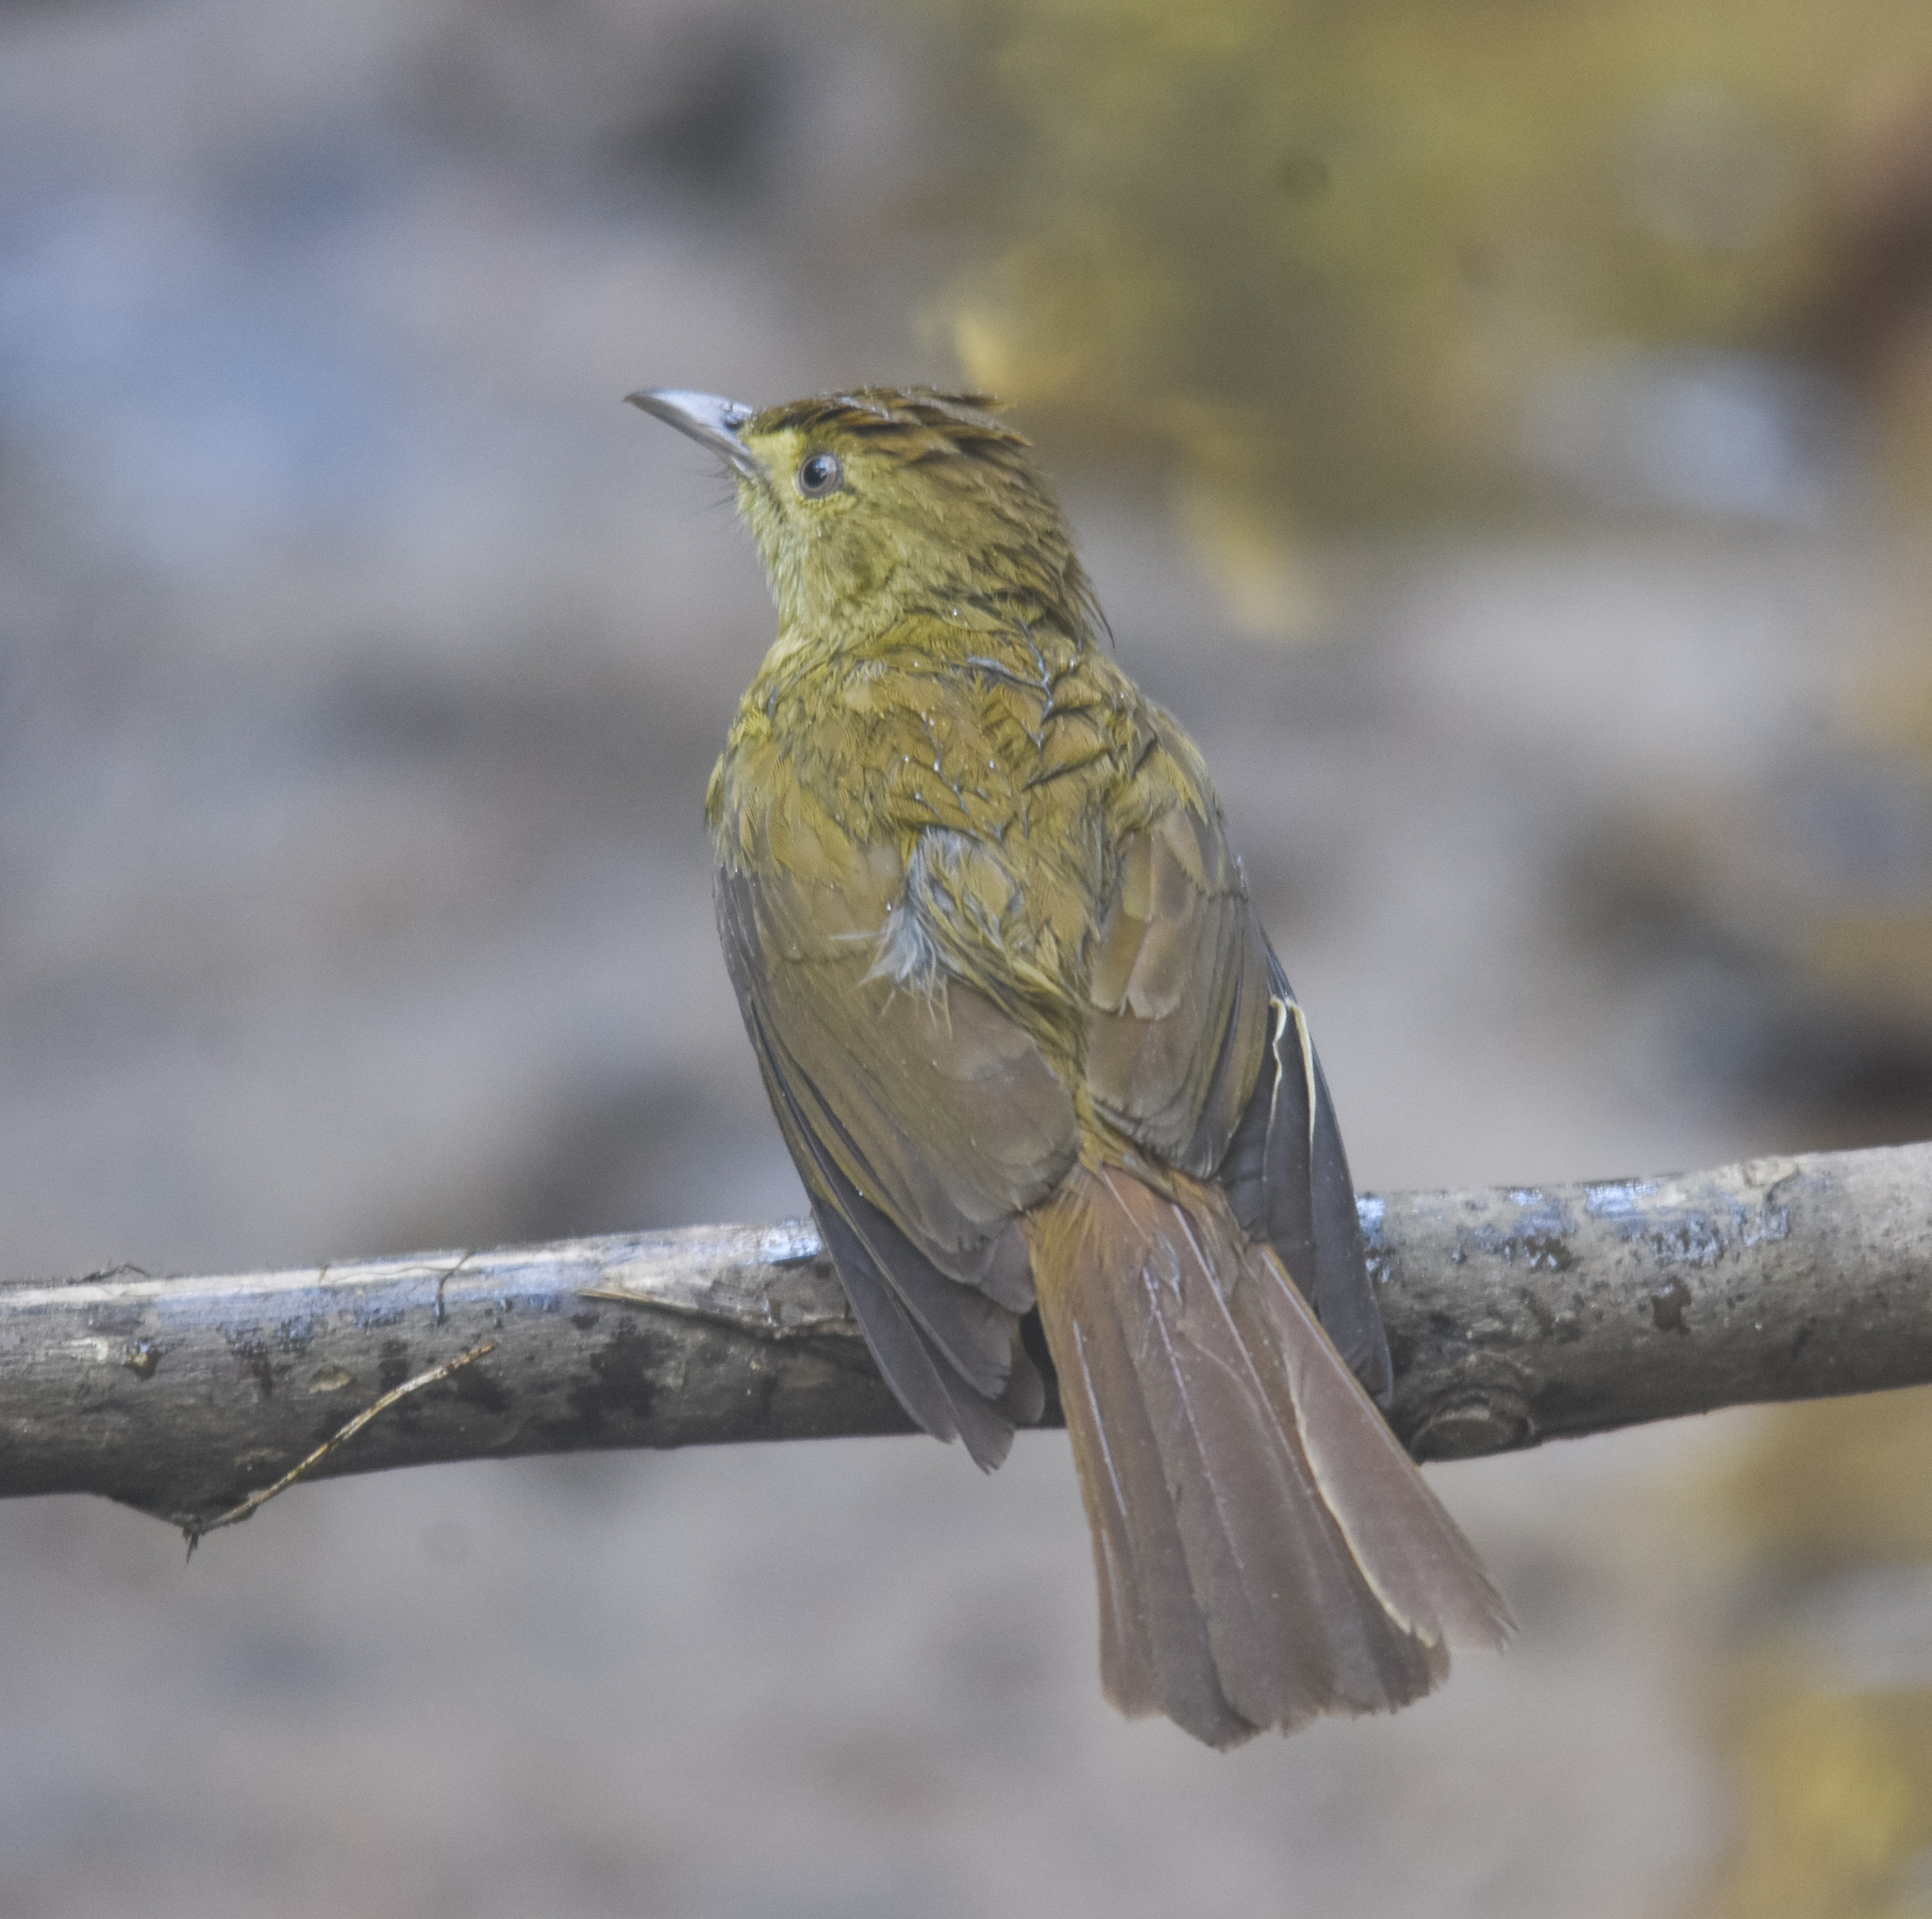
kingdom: Animalia
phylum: Chordata
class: Aves
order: Passeriformes
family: Pycnonotidae
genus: Iole
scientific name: Iole virescens
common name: Olive bulbul
